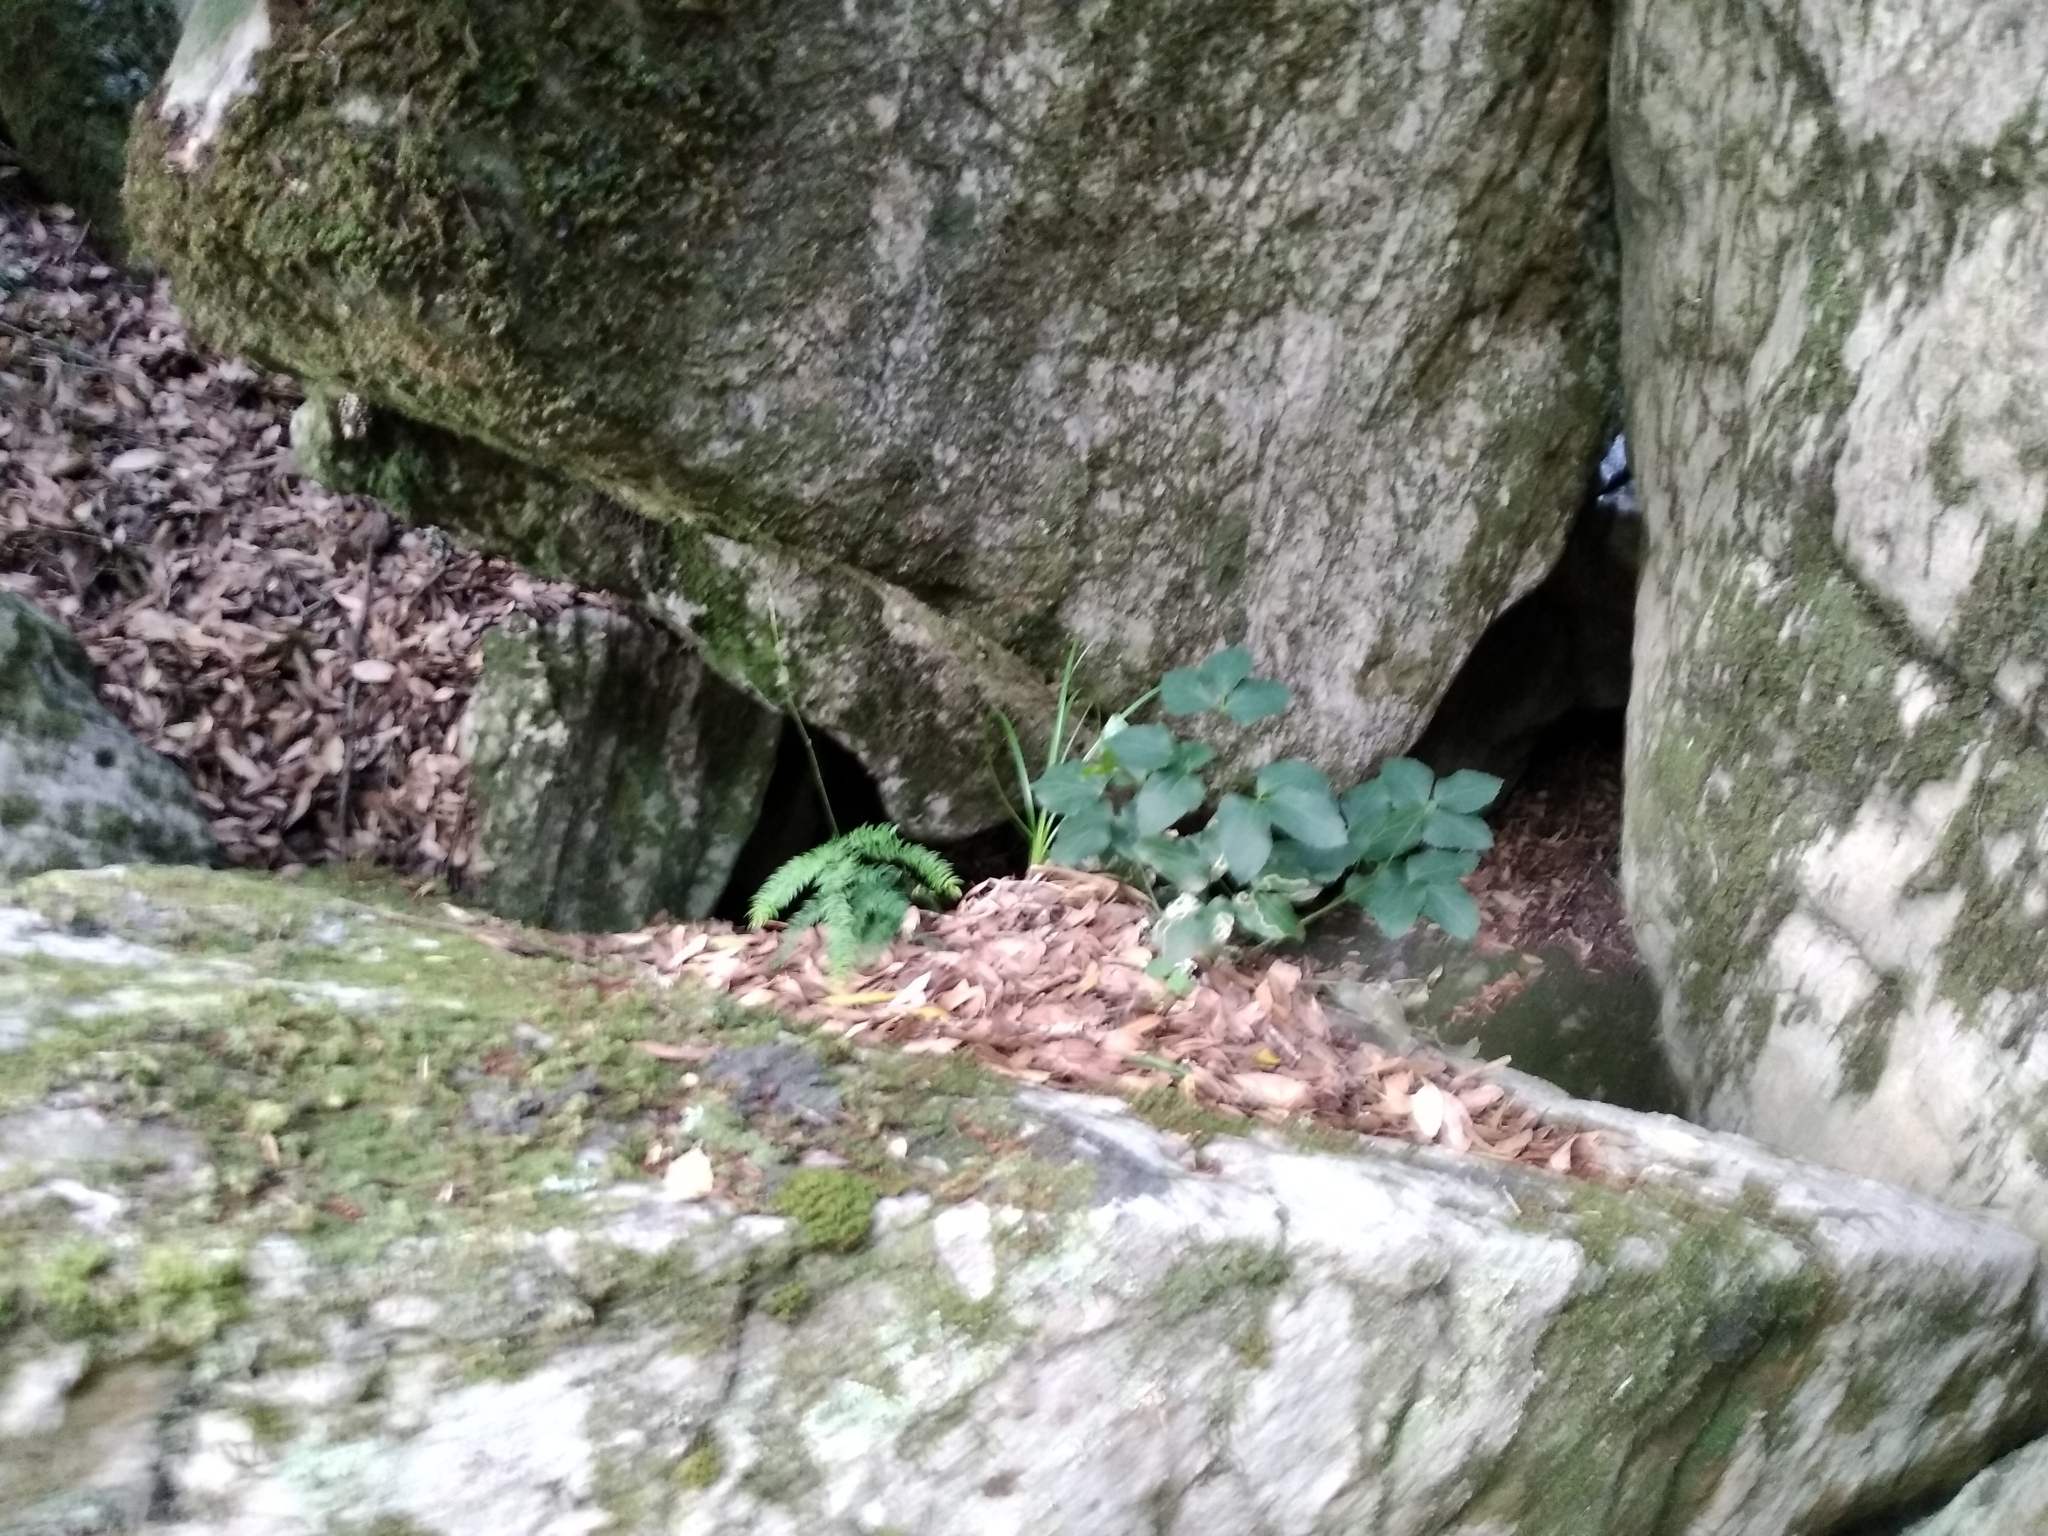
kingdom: Plantae
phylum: Tracheophyta
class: Magnoliopsida
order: Ranunculales
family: Ranunculaceae
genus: Knowltonia
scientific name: Knowltonia vesicatoria
